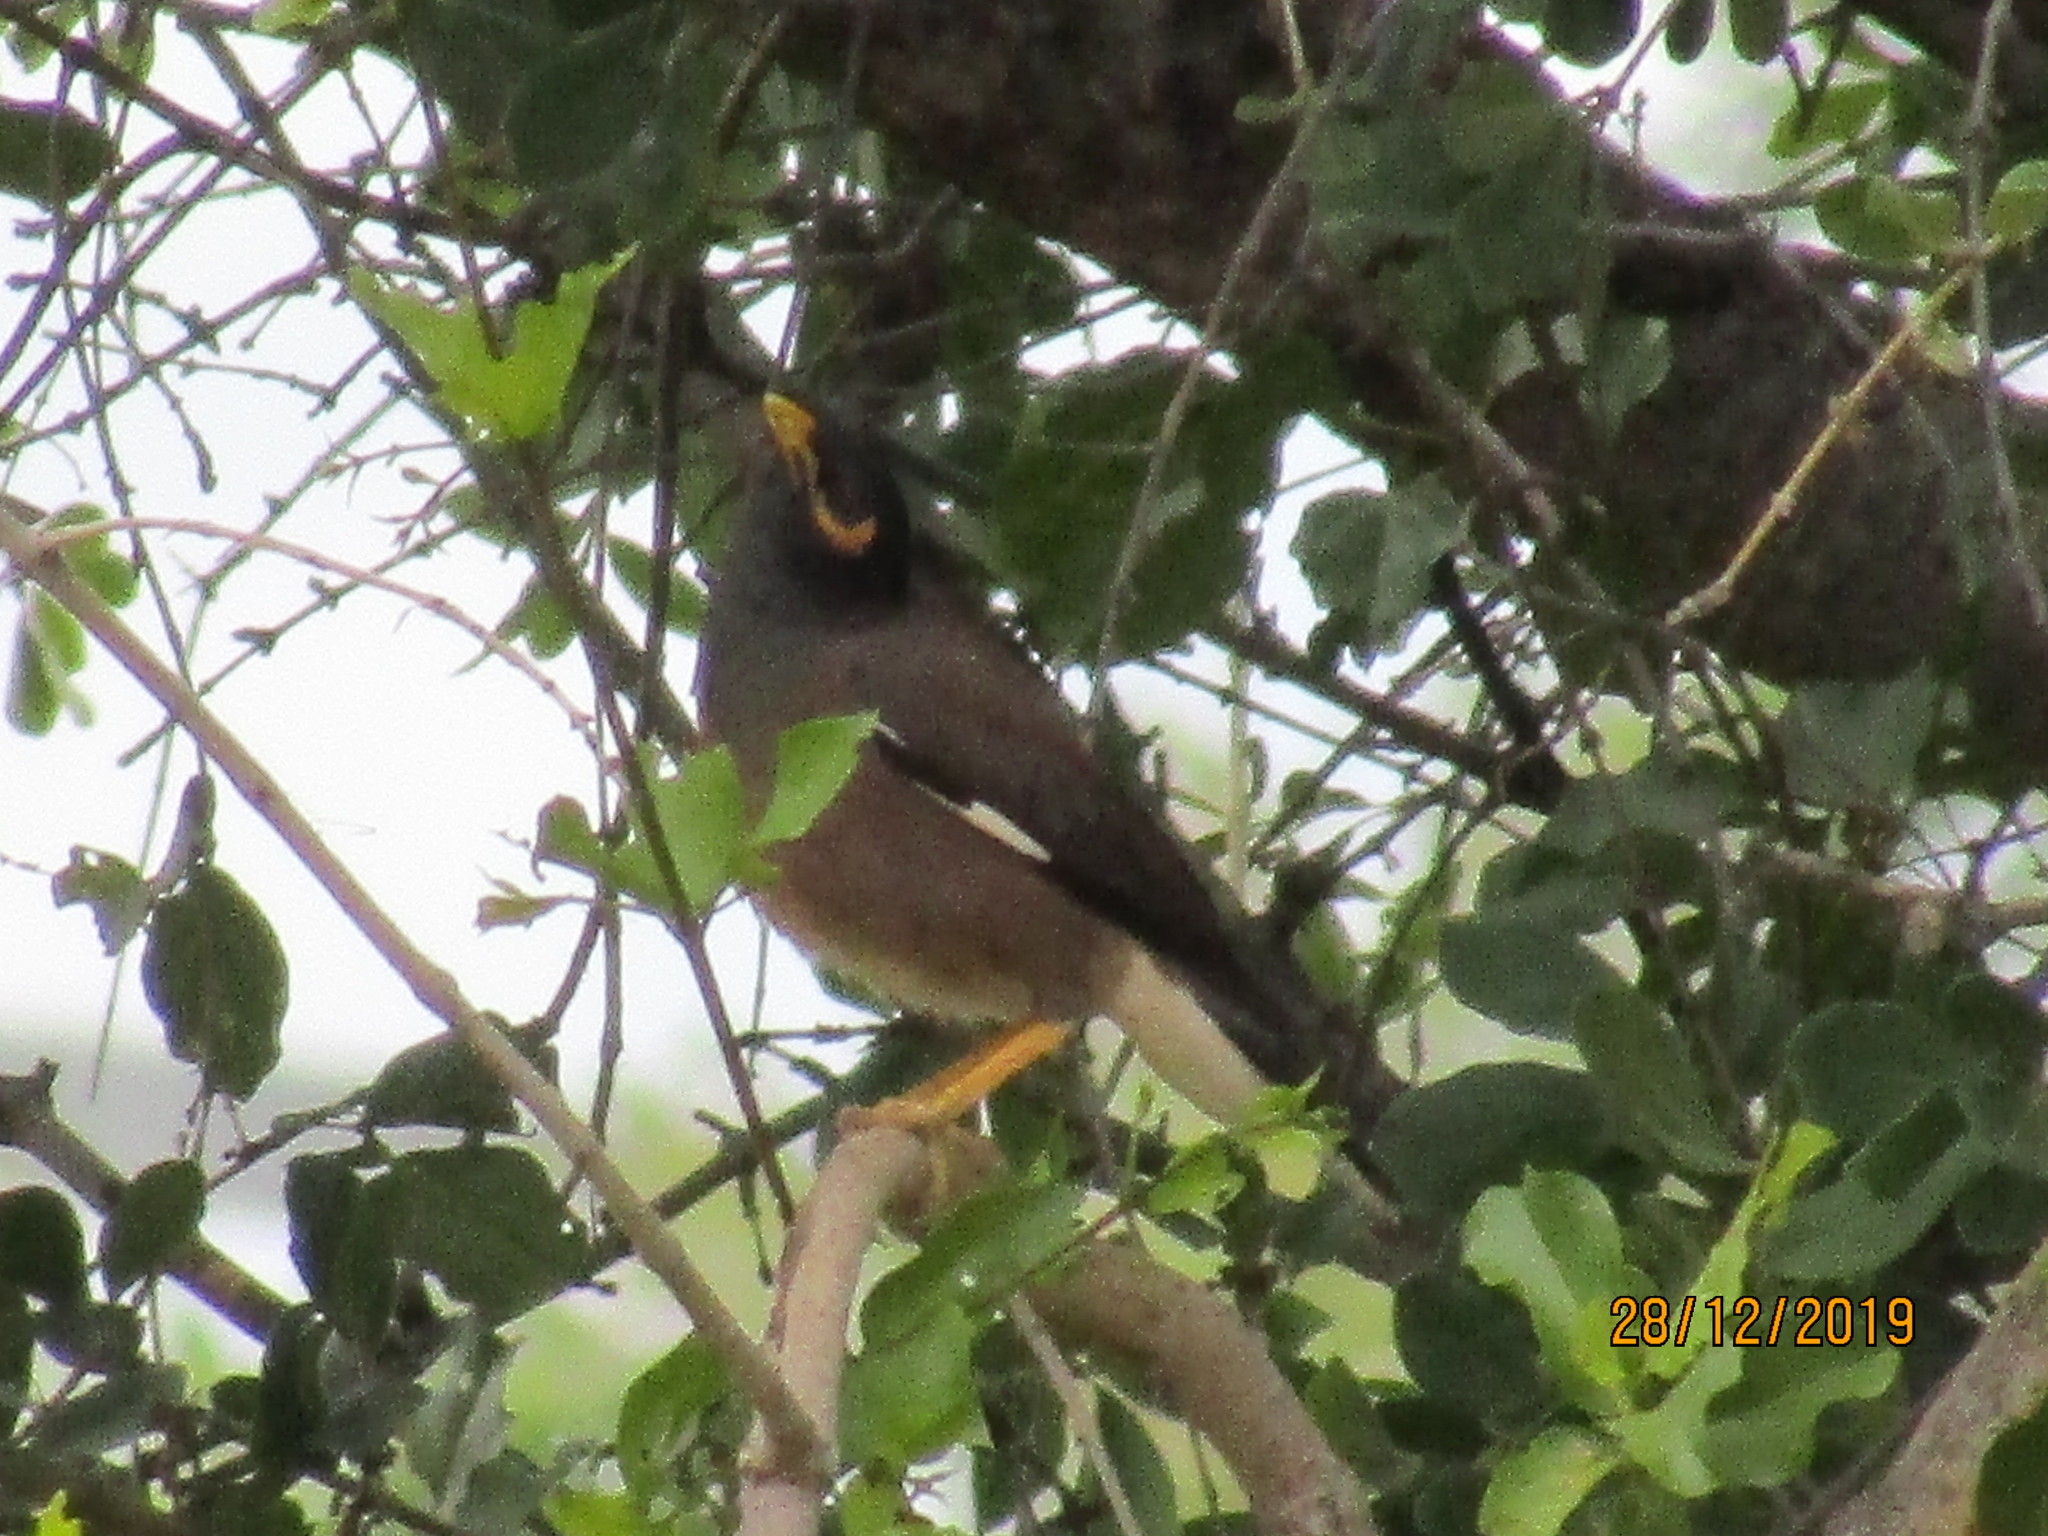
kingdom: Animalia
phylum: Chordata
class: Aves
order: Passeriformes
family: Sturnidae
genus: Acridotheres
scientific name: Acridotheres tristis
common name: Common myna
